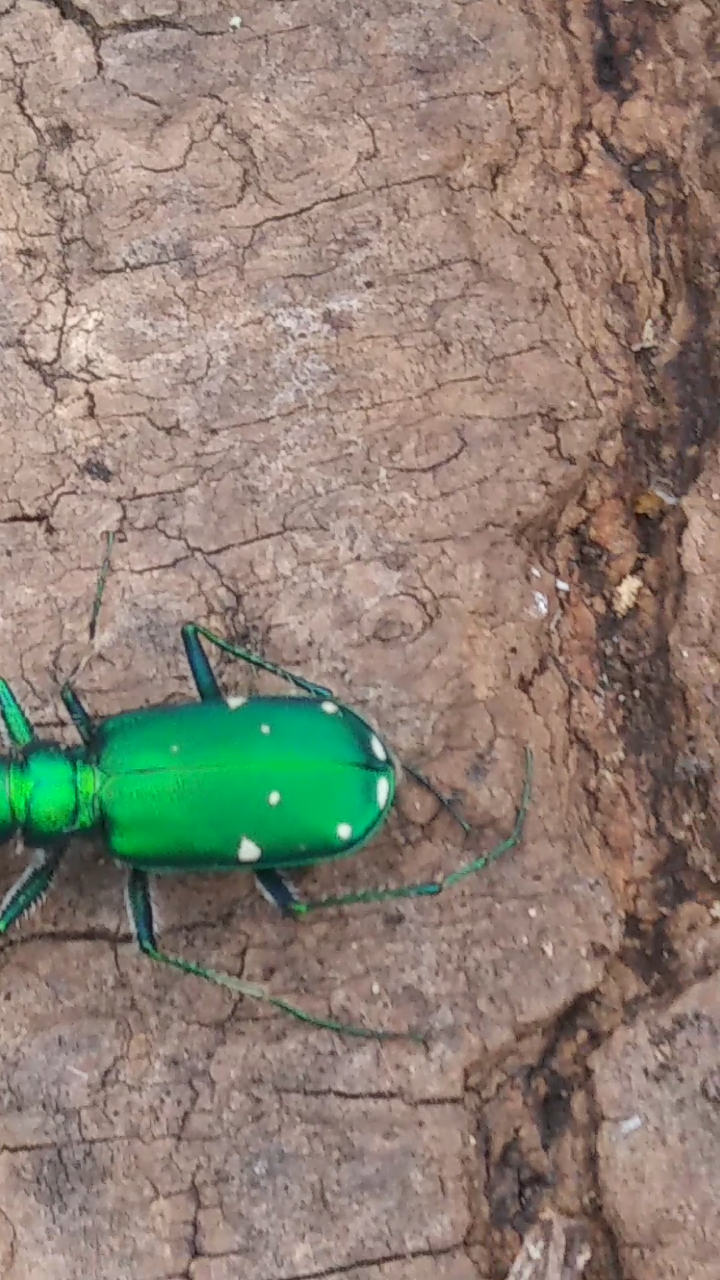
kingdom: Animalia
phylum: Arthropoda
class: Insecta
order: Coleoptera
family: Carabidae
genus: Cicindela
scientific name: Cicindela sexguttata
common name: Six-spotted tiger beetle
